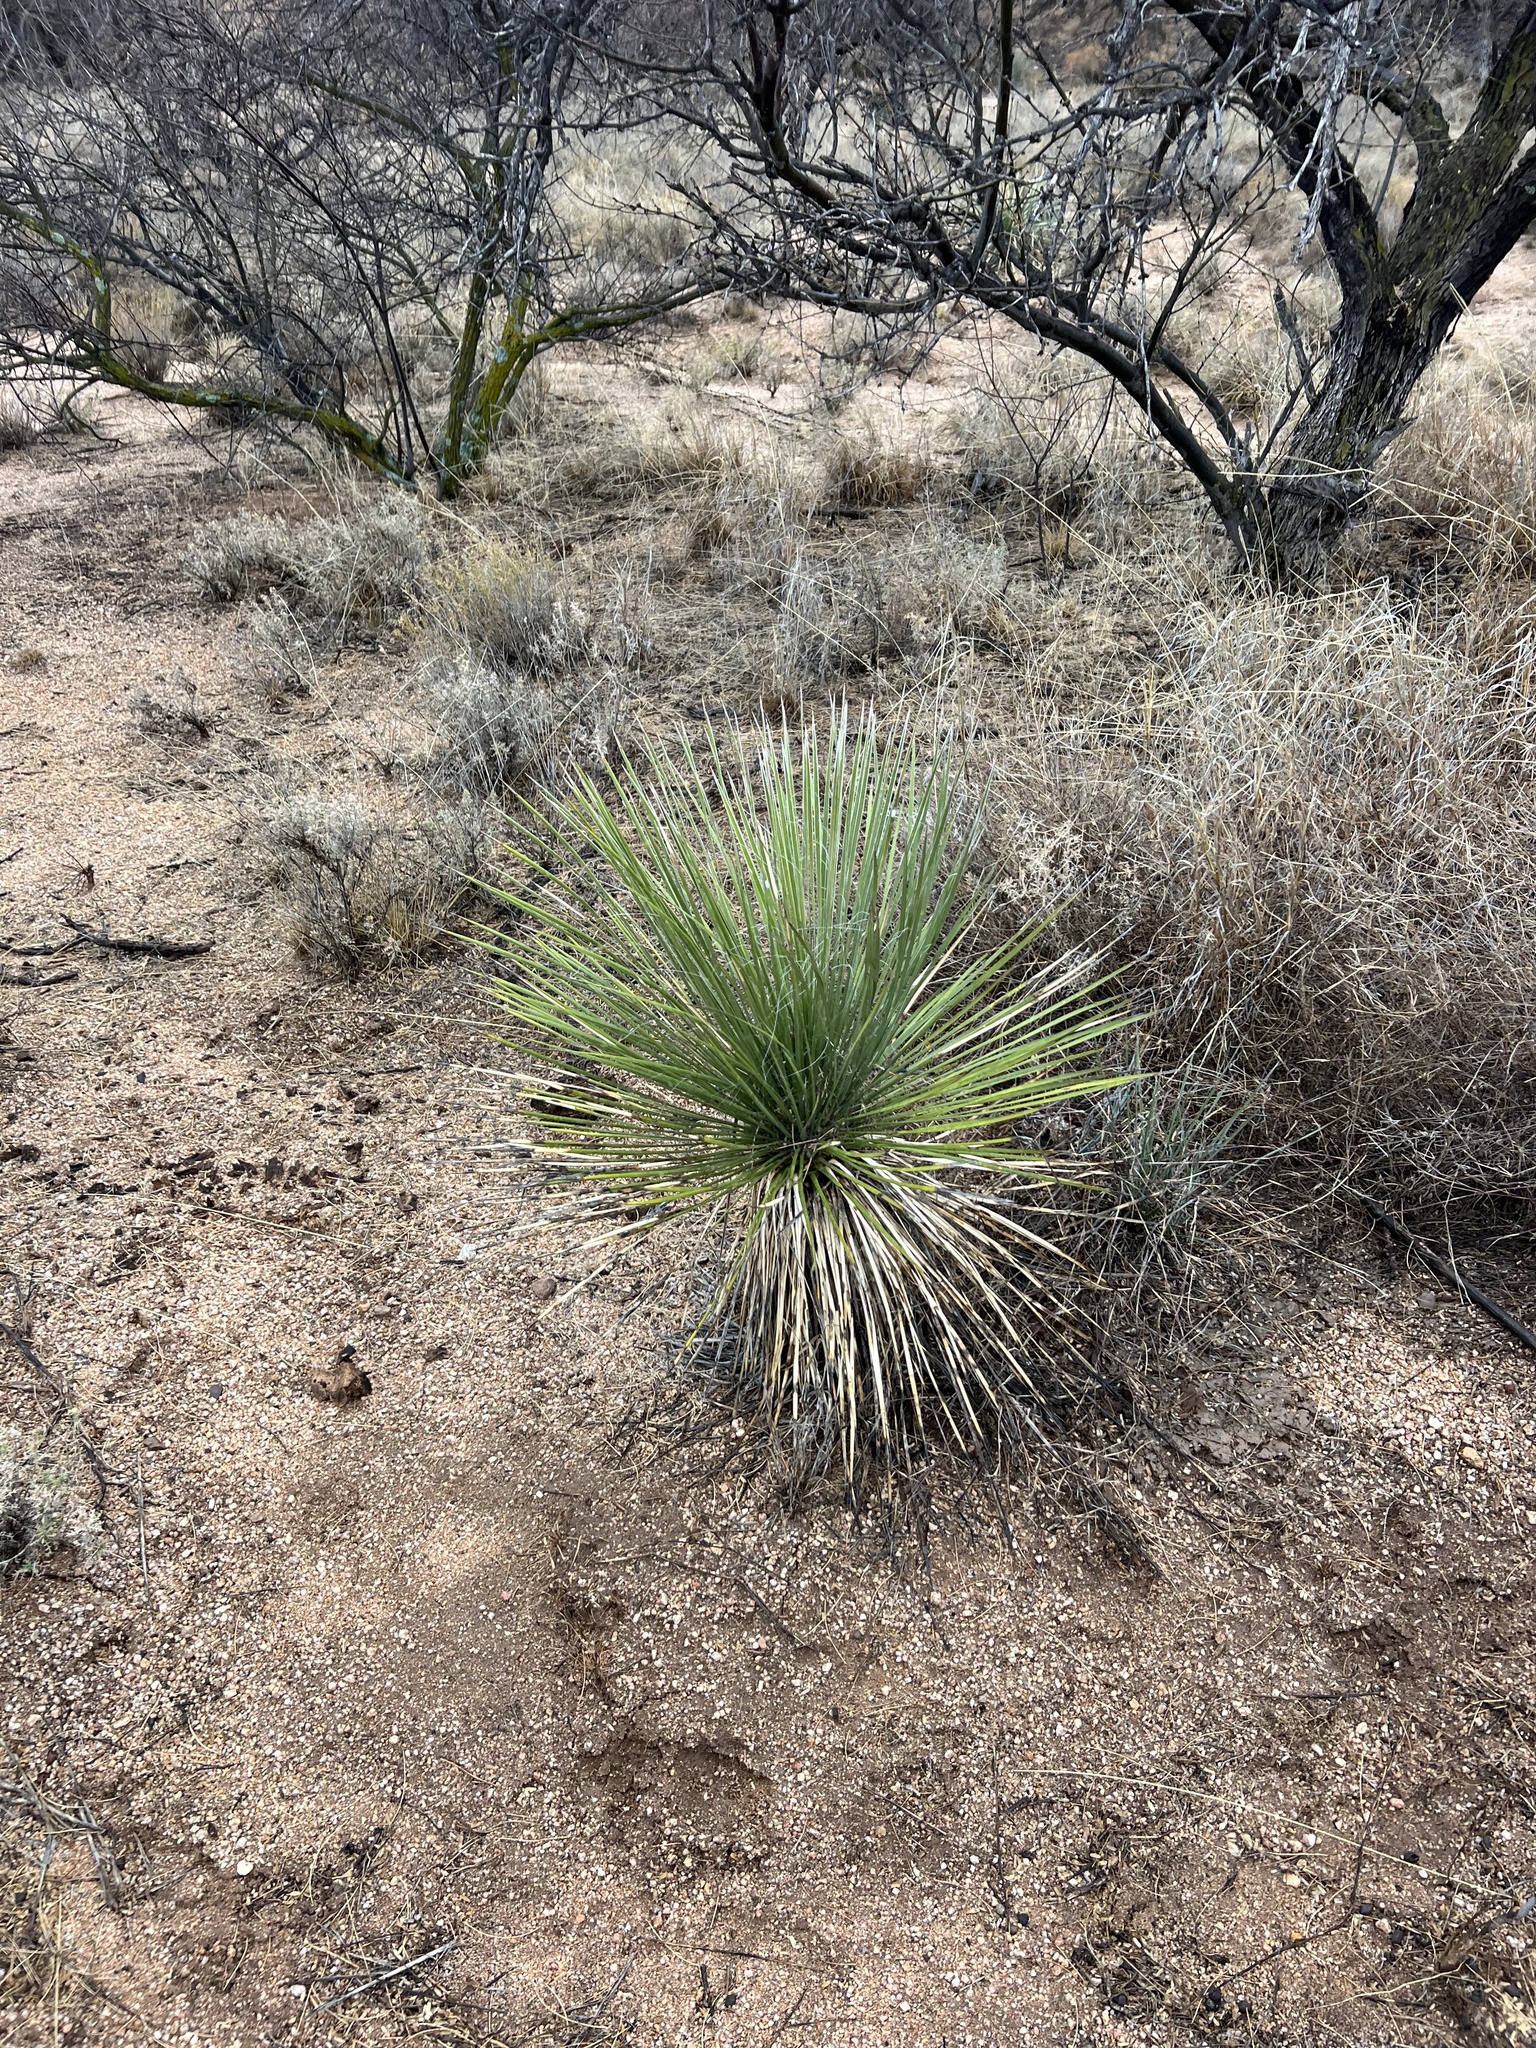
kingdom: Plantae
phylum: Tracheophyta
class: Liliopsida
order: Asparagales
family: Asparagaceae
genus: Yucca
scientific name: Yucca elata
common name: Palmella
